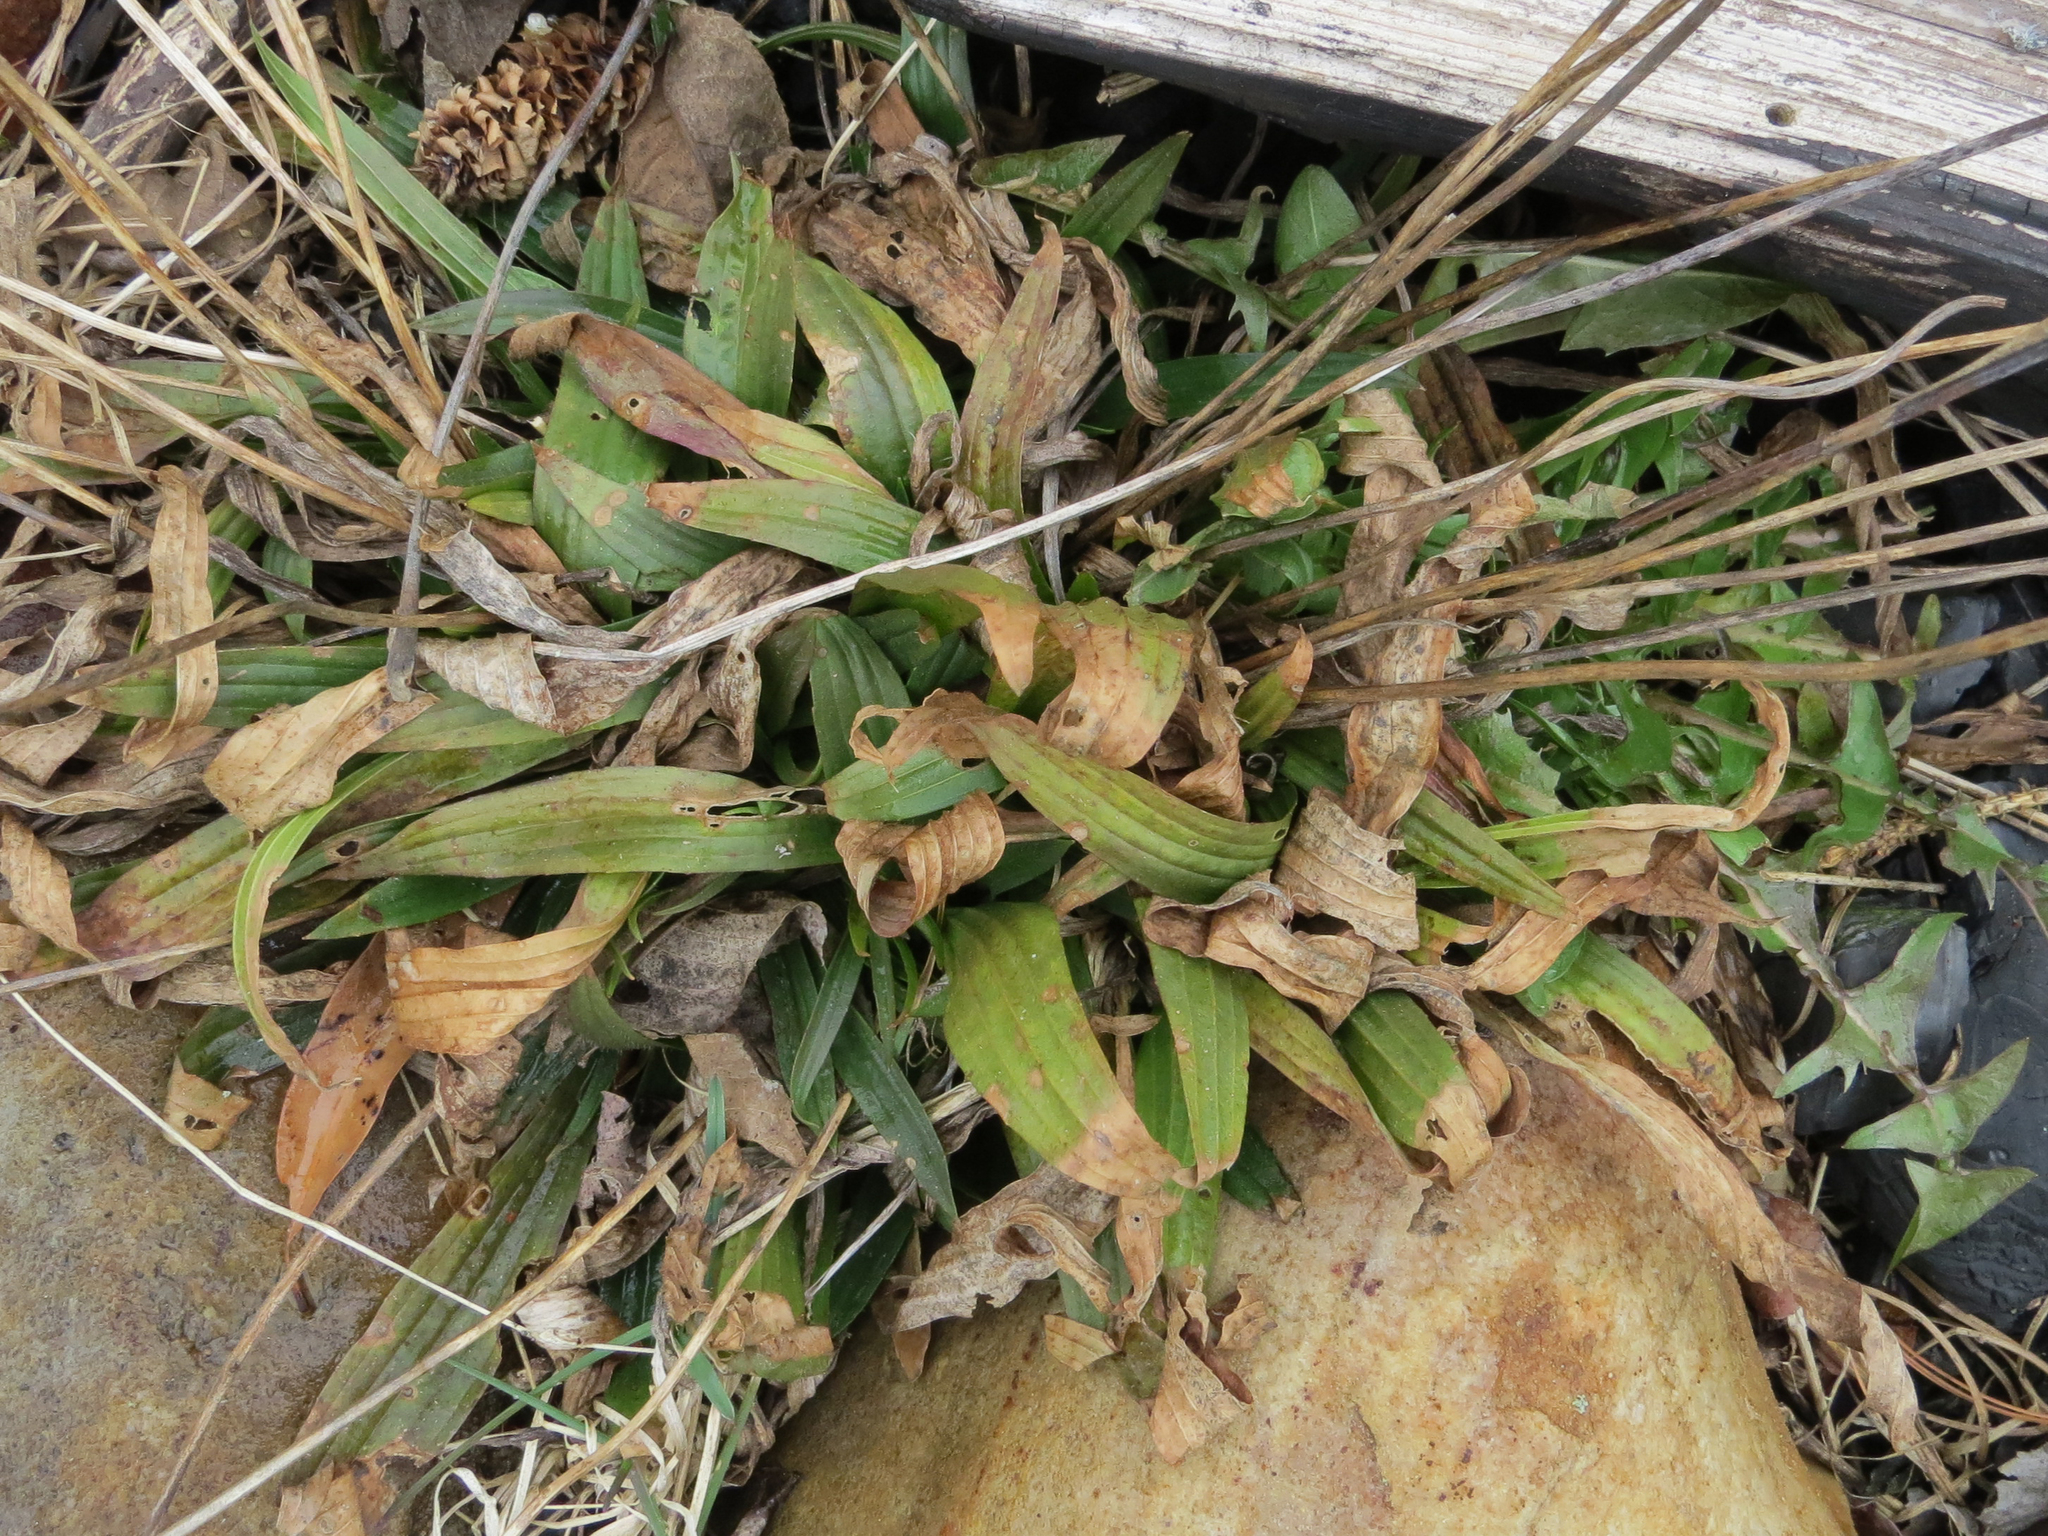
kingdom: Plantae
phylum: Tracheophyta
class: Magnoliopsida
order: Lamiales
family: Plantaginaceae
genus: Plantago
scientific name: Plantago lanceolata
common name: Ribwort plantain
